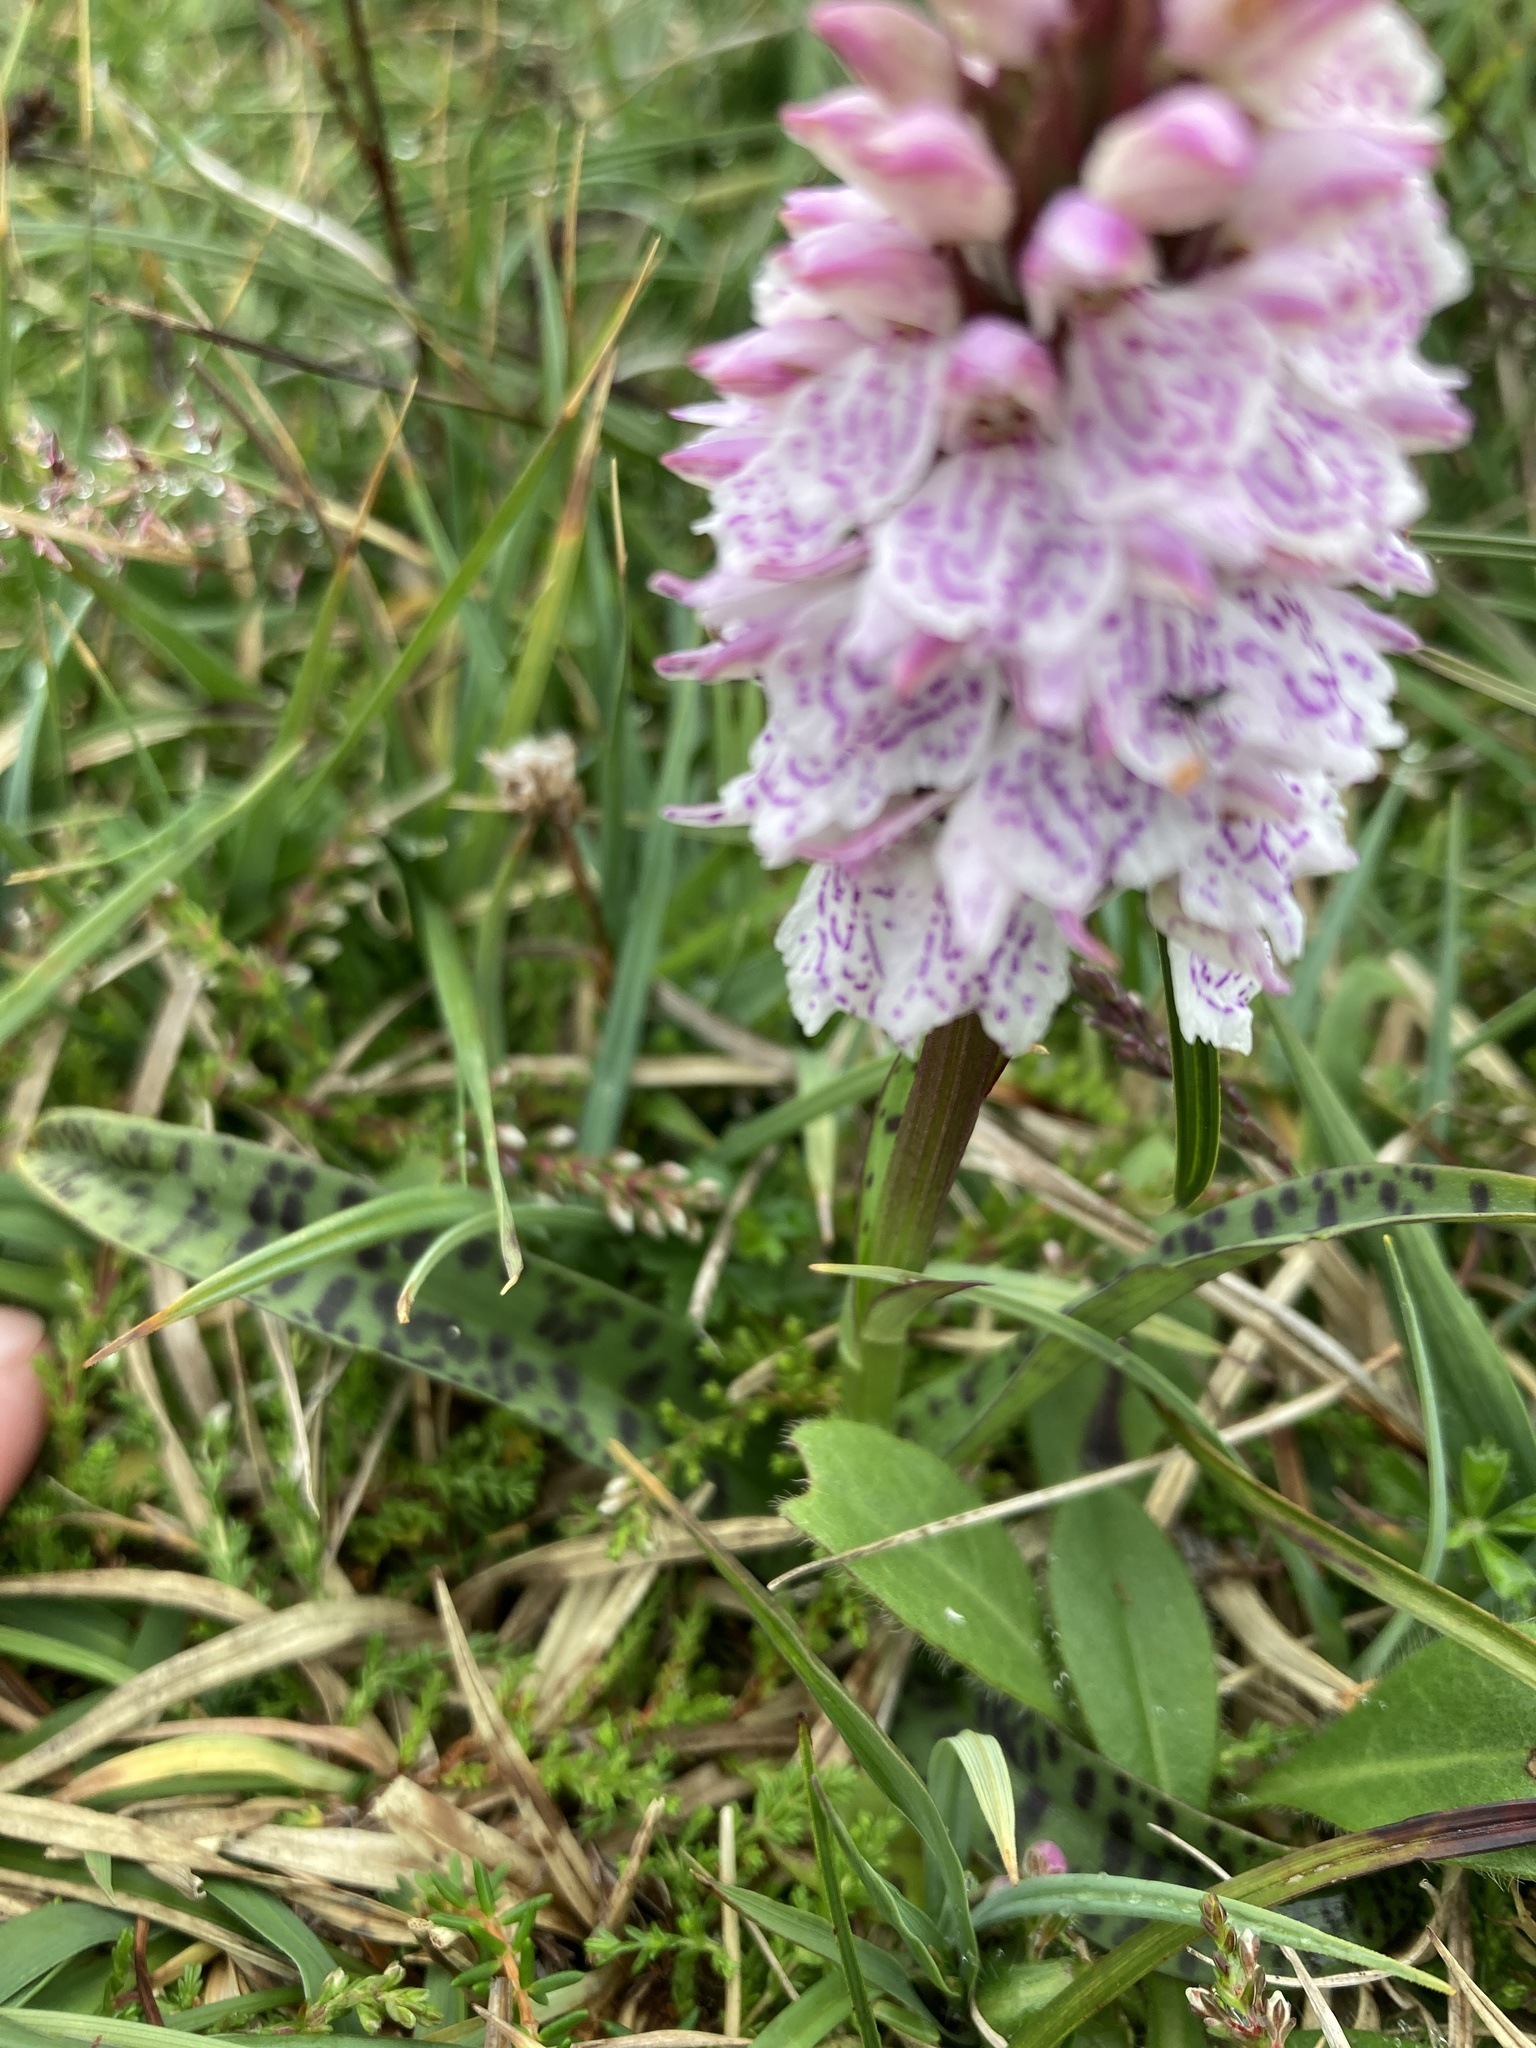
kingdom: Plantae
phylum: Tracheophyta
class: Liliopsida
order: Asparagales
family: Orchidaceae
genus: Dactylorhiza
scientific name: Dactylorhiza maculata
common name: Heath spotted-orchid
